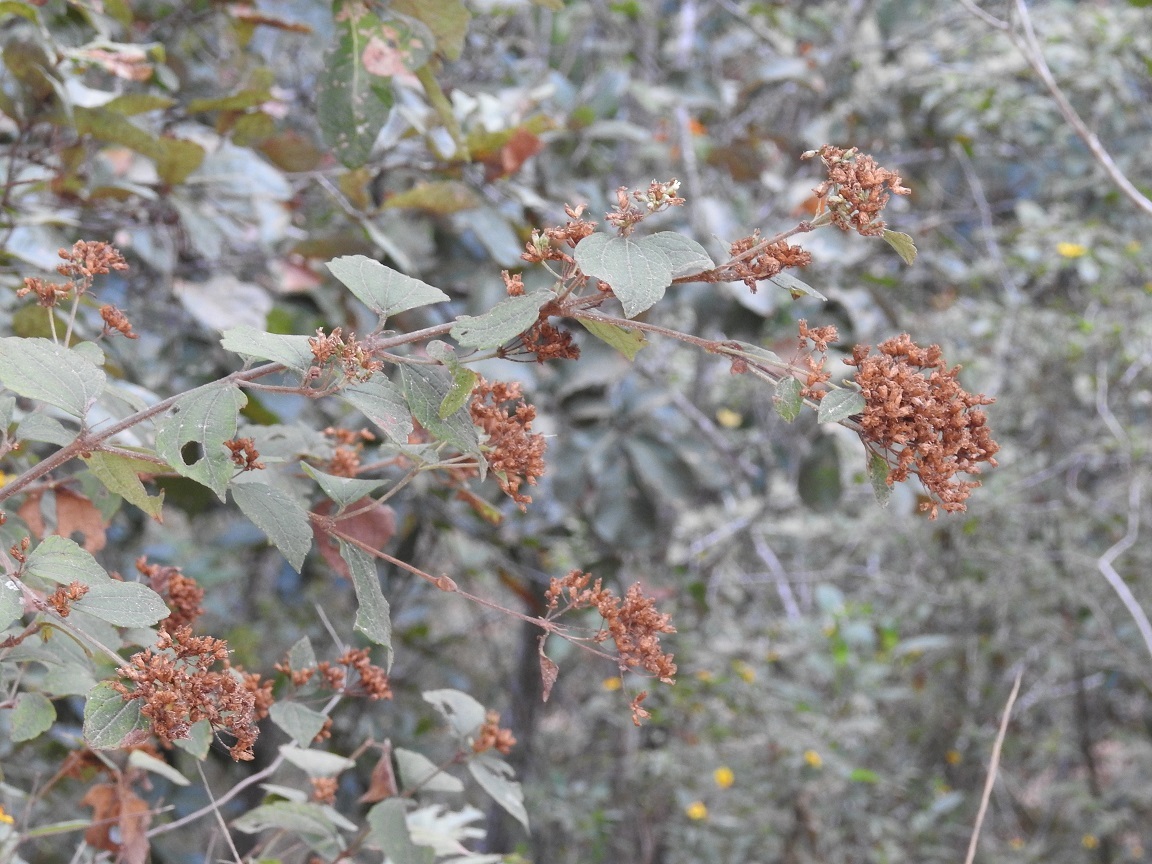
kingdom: Plantae
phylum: Tracheophyta
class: Magnoliopsida
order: Asterales
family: Asteraceae
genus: Calea
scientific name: Calea ternifolia
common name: Mexican calea
